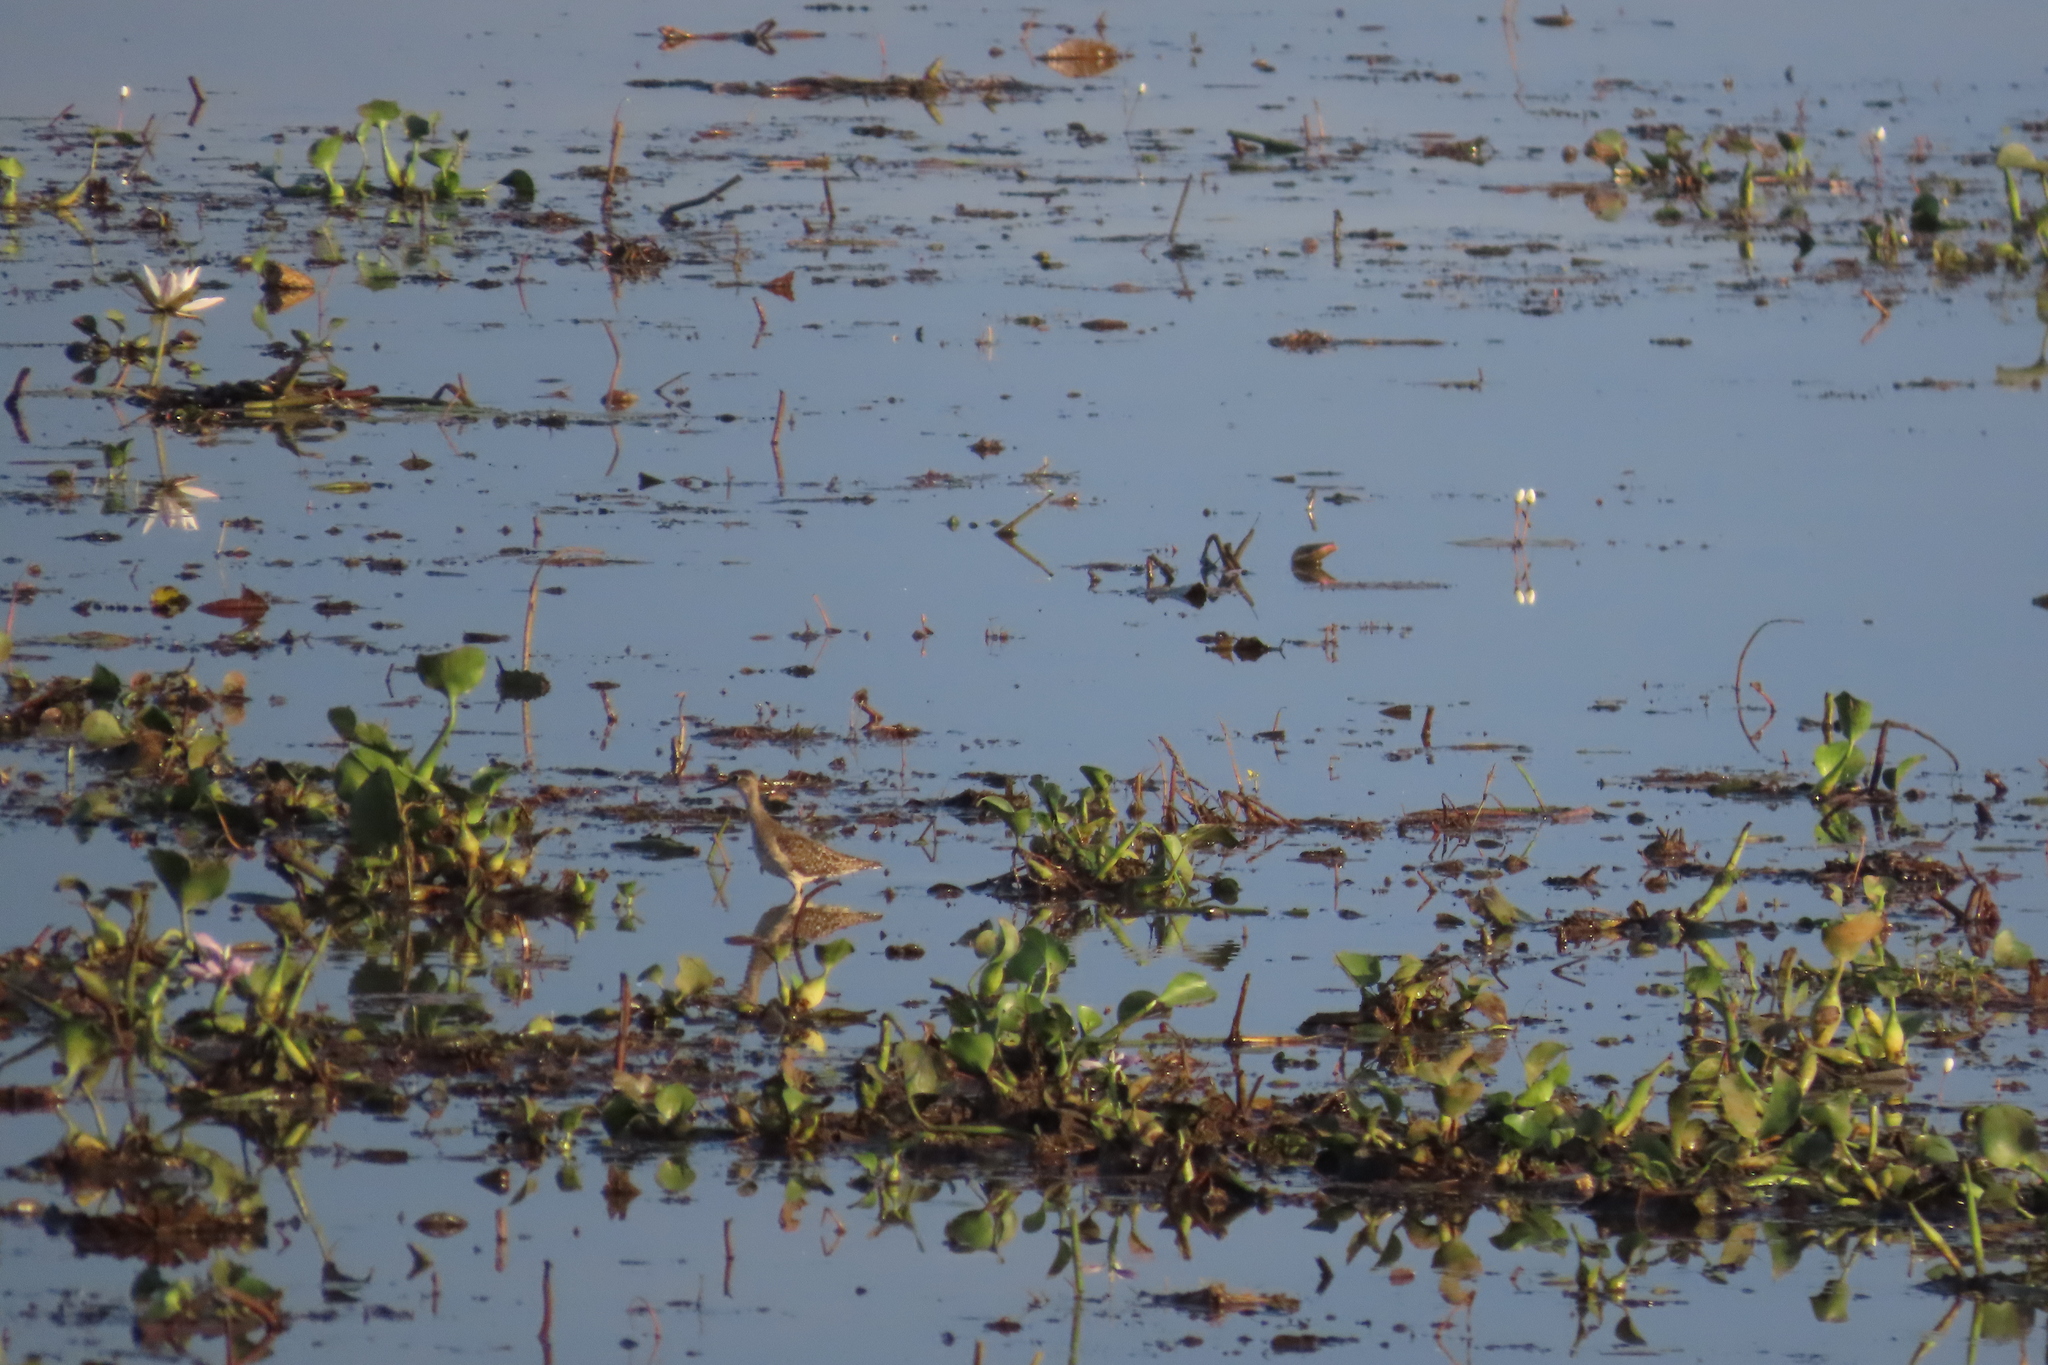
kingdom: Animalia
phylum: Chordata
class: Aves
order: Charadriiformes
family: Scolopacidae
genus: Tringa
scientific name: Tringa glareola
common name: Wood sandpiper
